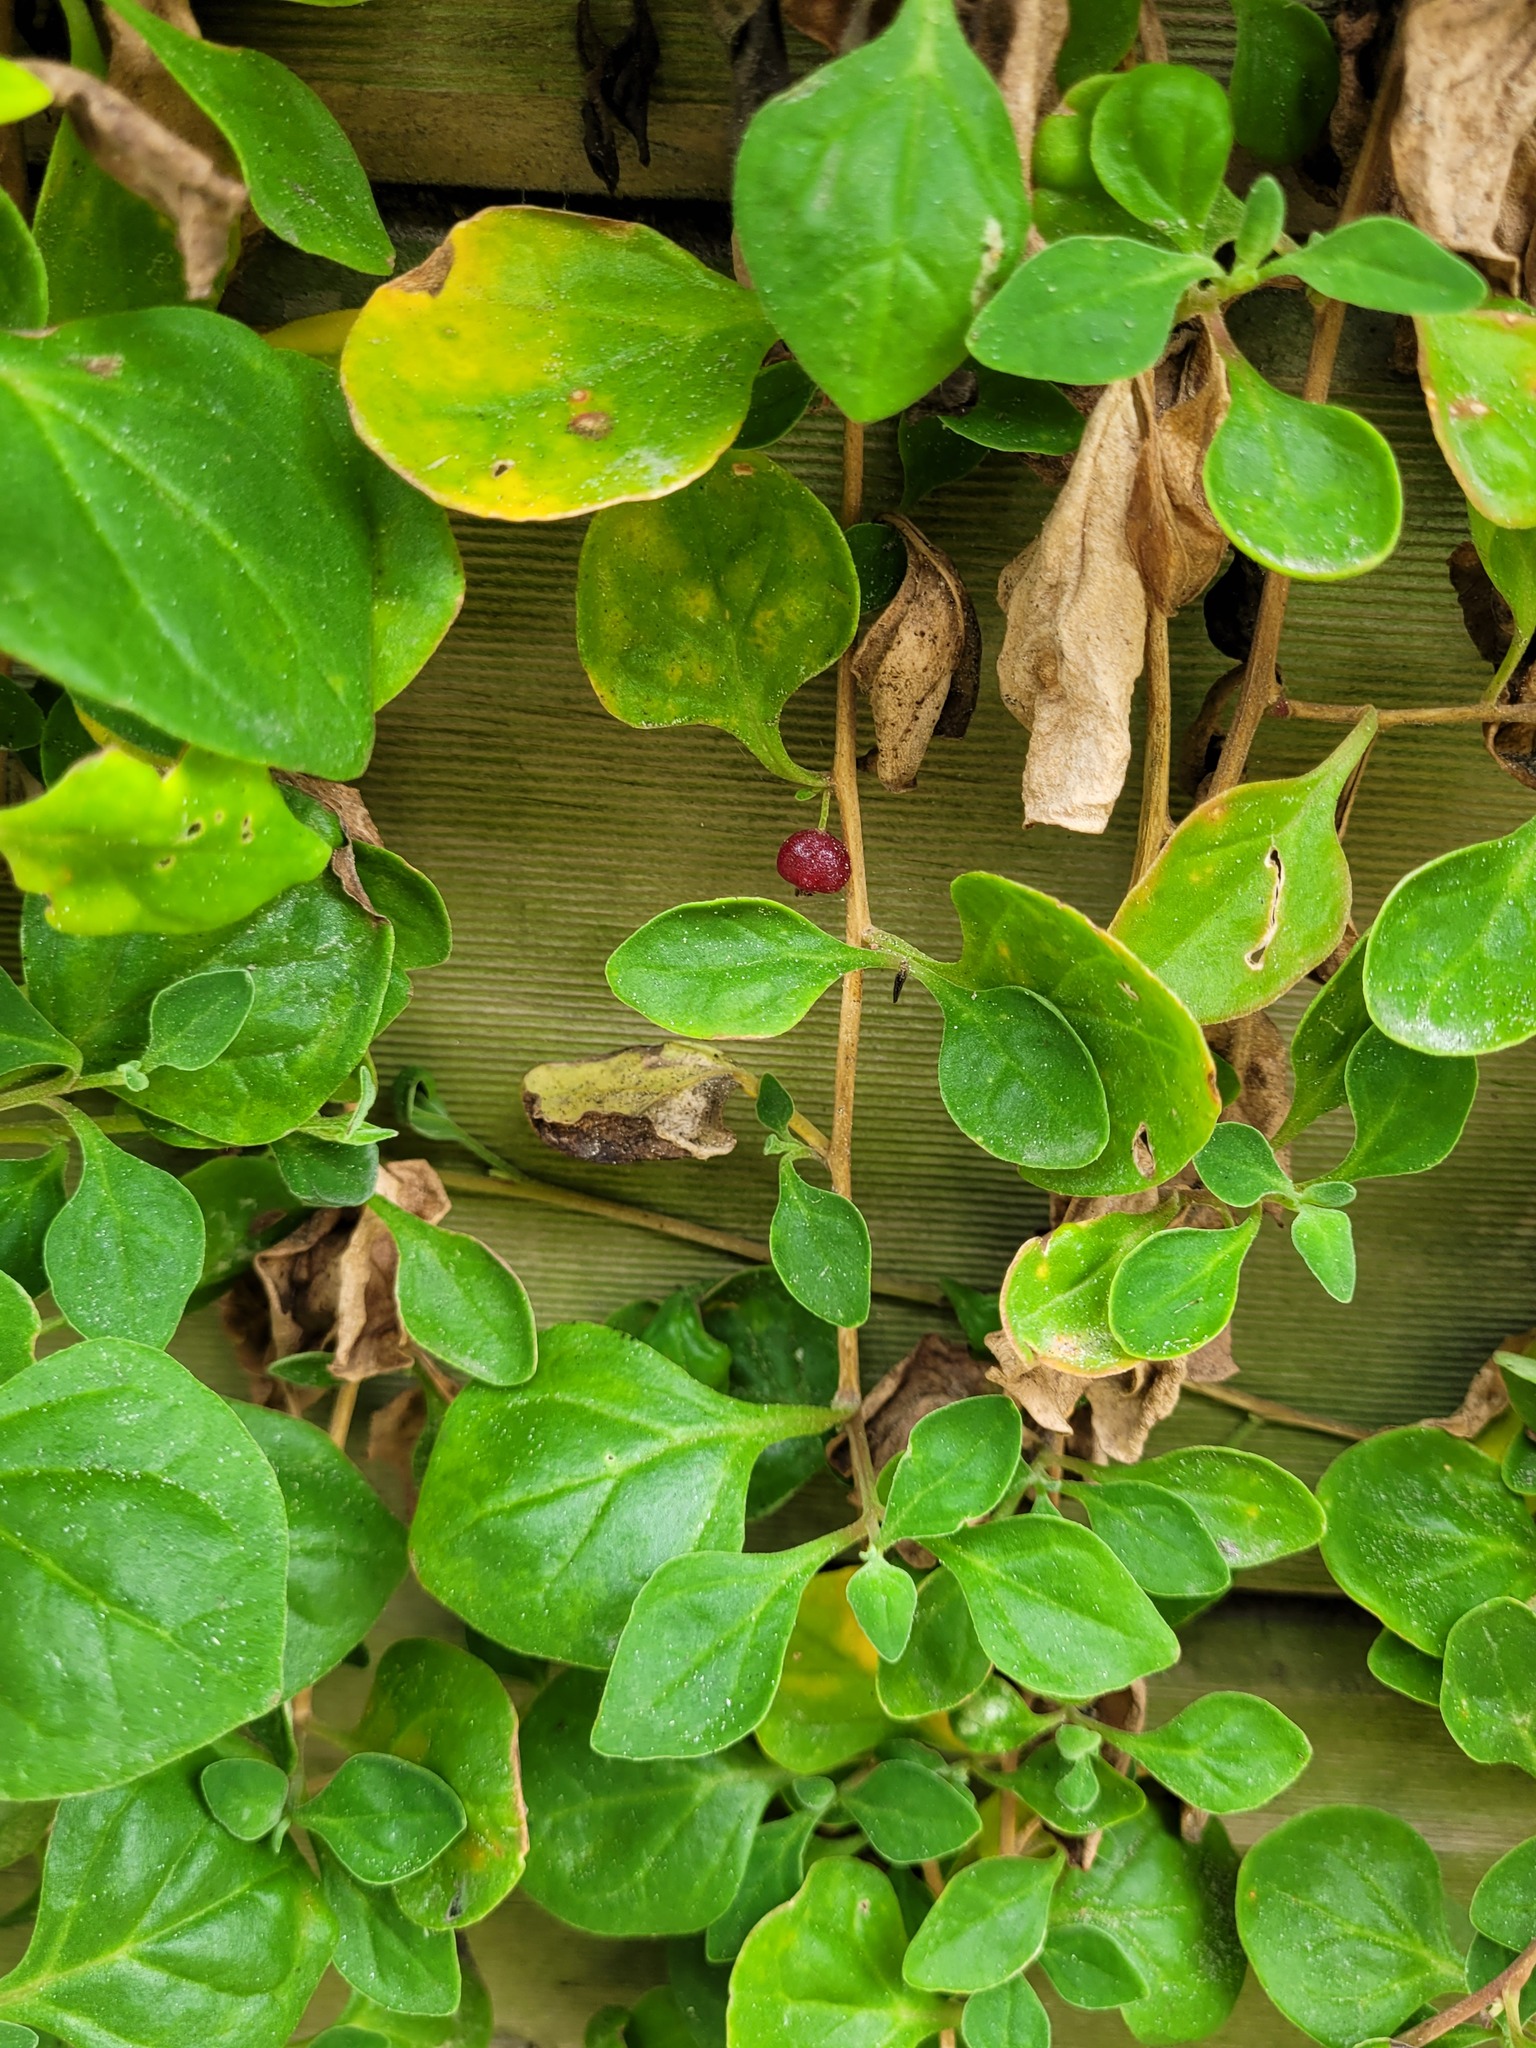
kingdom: Plantae
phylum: Tracheophyta
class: Magnoliopsida
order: Caryophyllales
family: Aizoaceae
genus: Tetragonia
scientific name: Tetragonia implexicoma
